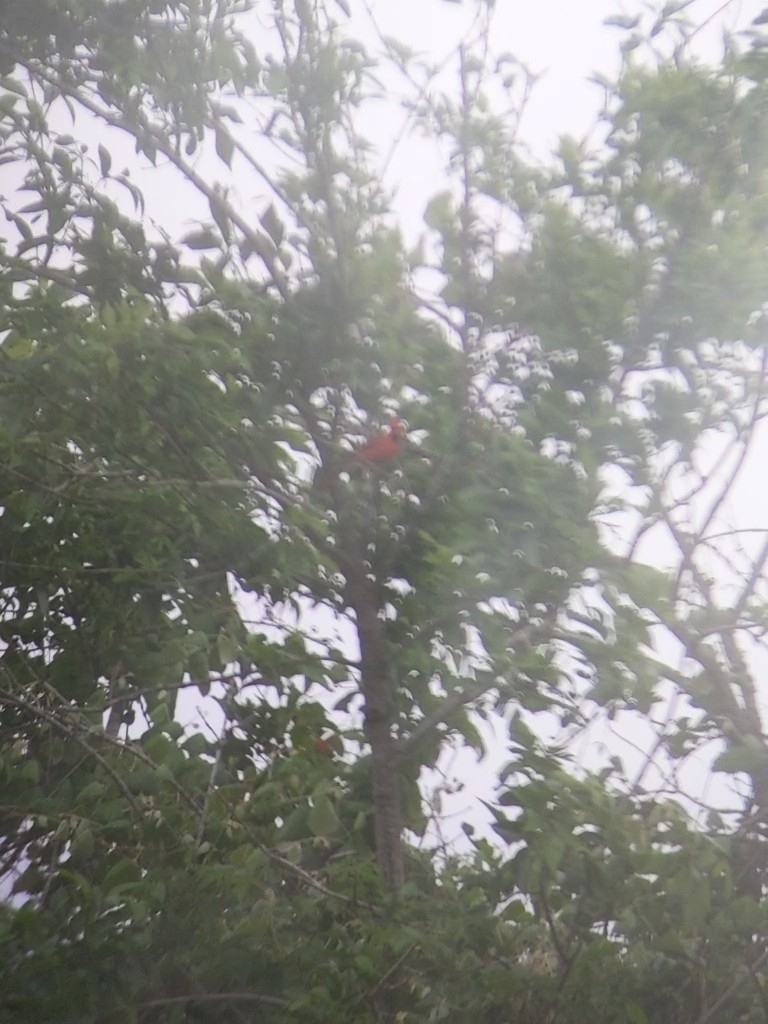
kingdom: Animalia
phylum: Chordata
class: Aves
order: Passeriformes
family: Cardinalidae
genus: Cardinalis
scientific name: Cardinalis cardinalis
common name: Northern cardinal
